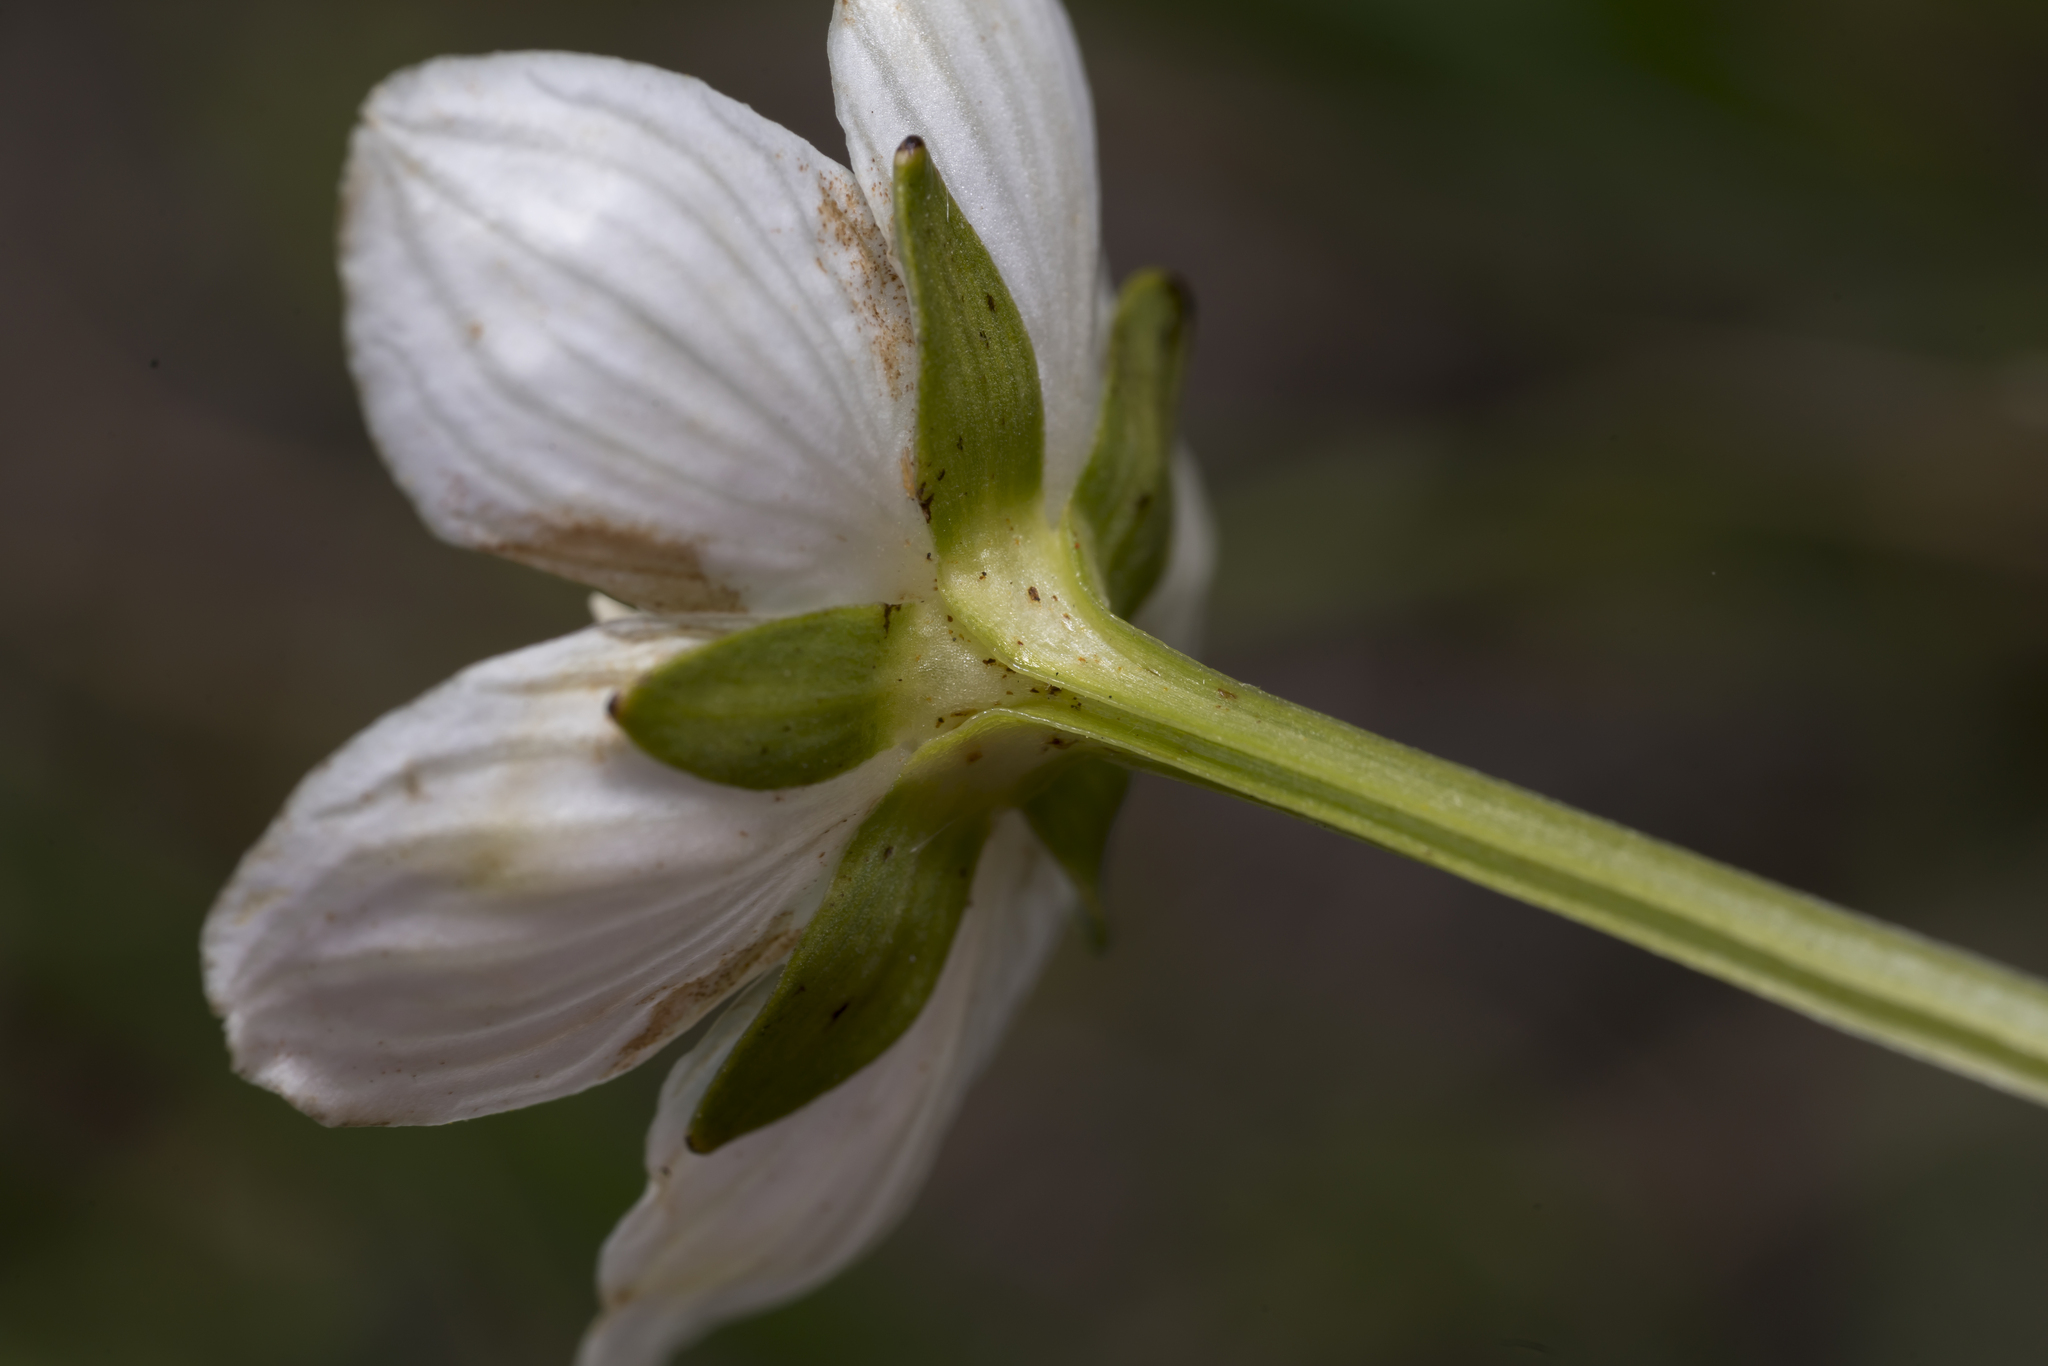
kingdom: Plantae
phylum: Tracheophyta
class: Magnoliopsida
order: Celastrales
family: Parnassiaceae
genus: Parnassia
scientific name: Parnassia palustris
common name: Grass-of-parnassus
